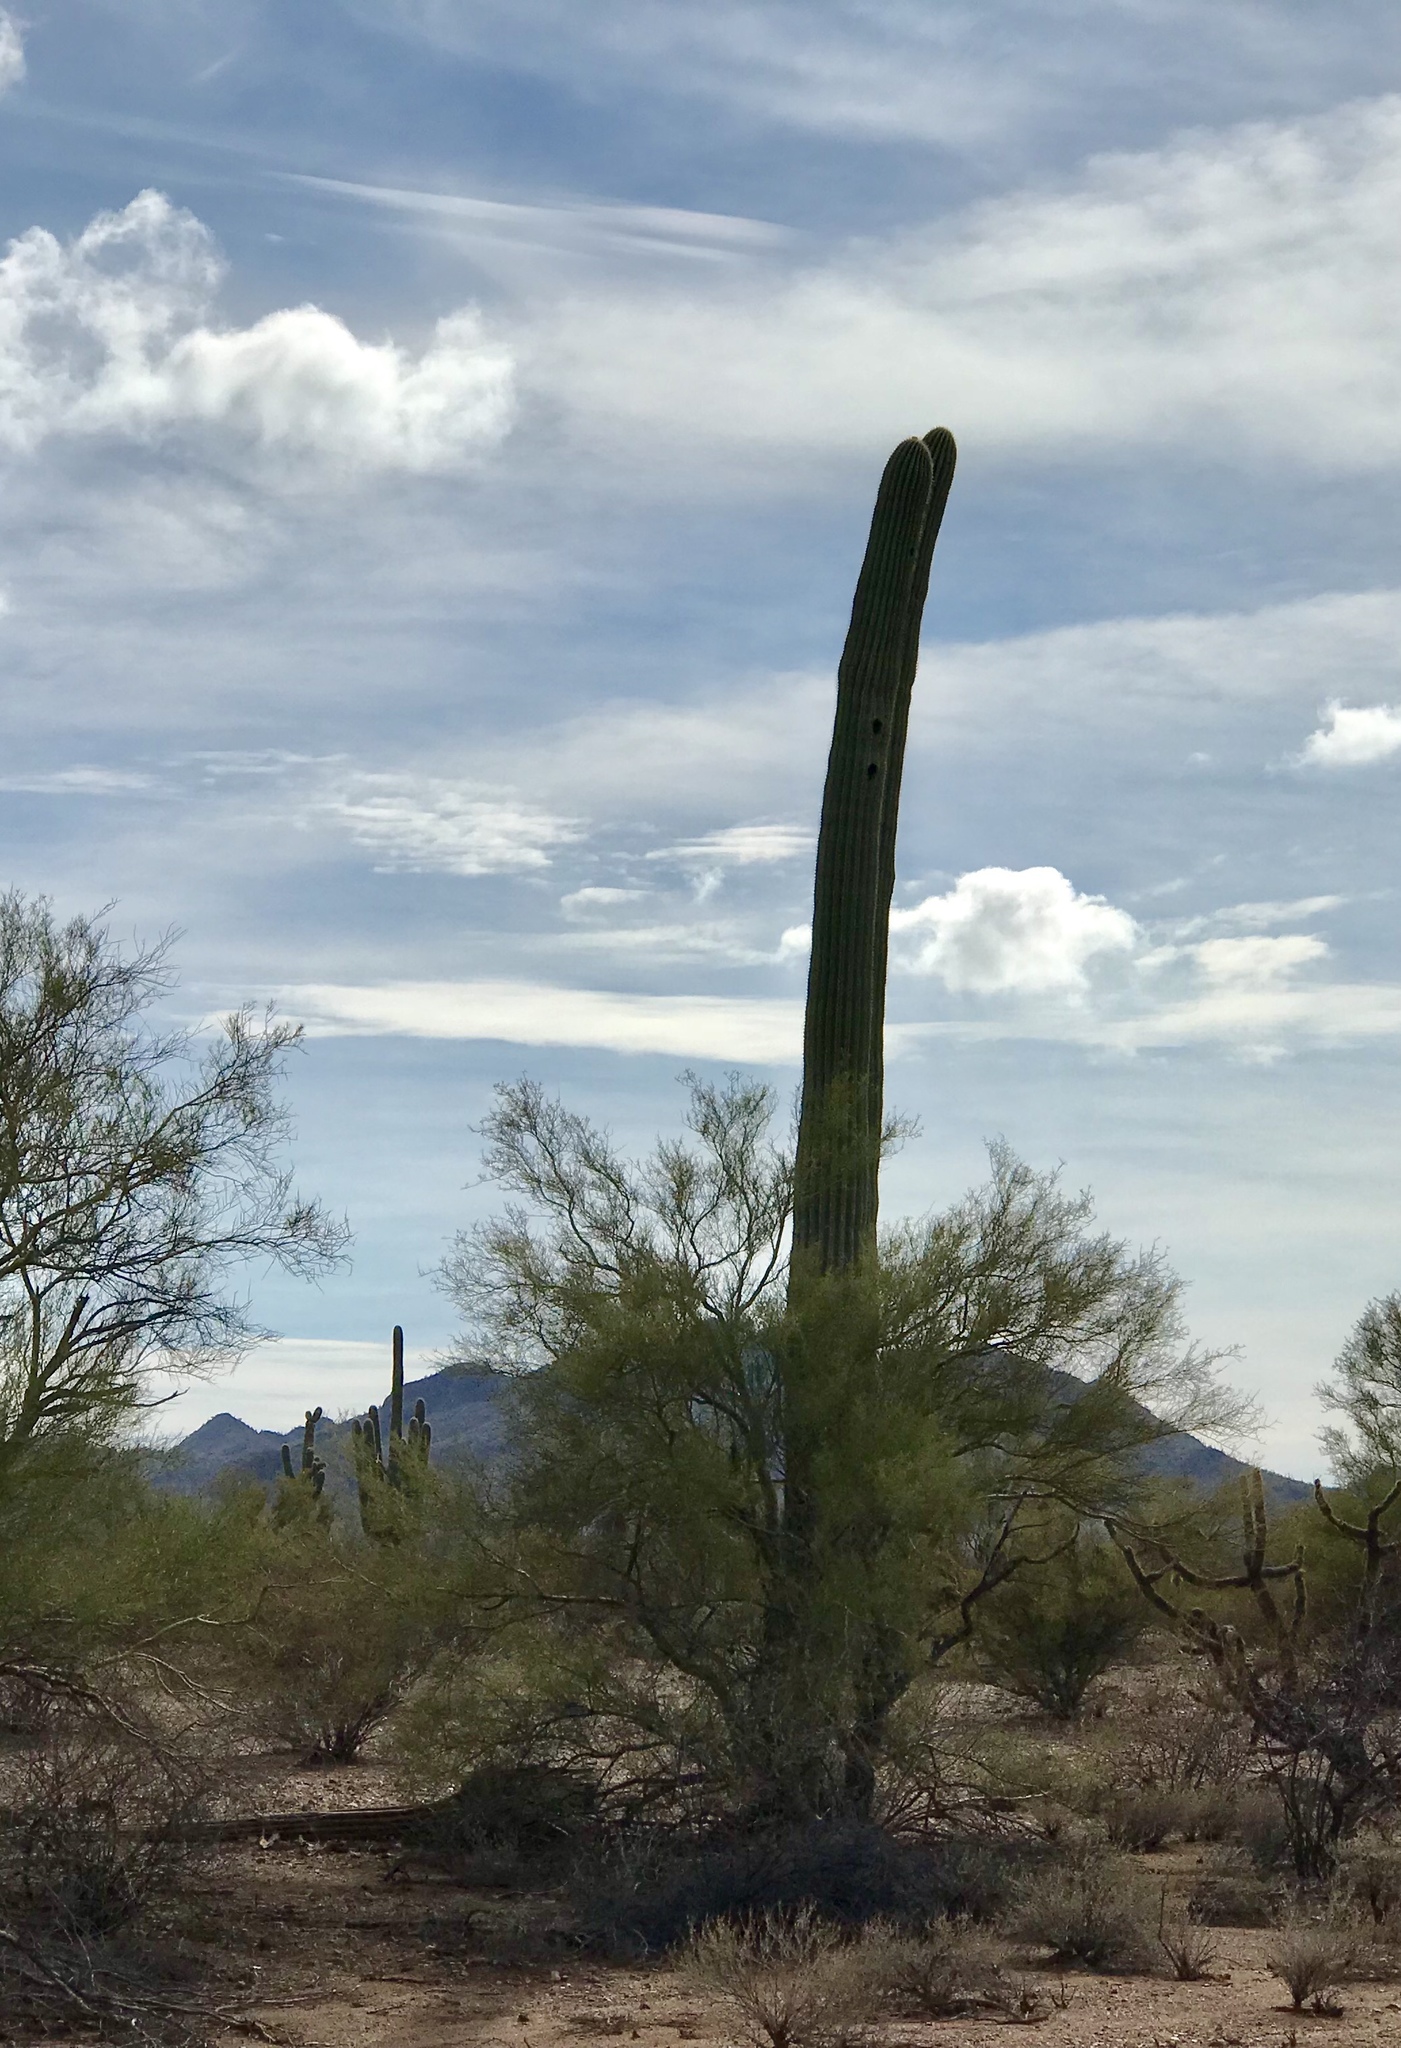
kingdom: Plantae
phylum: Tracheophyta
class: Magnoliopsida
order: Caryophyllales
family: Cactaceae
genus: Carnegiea
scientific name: Carnegiea gigantea
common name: Saguaro
